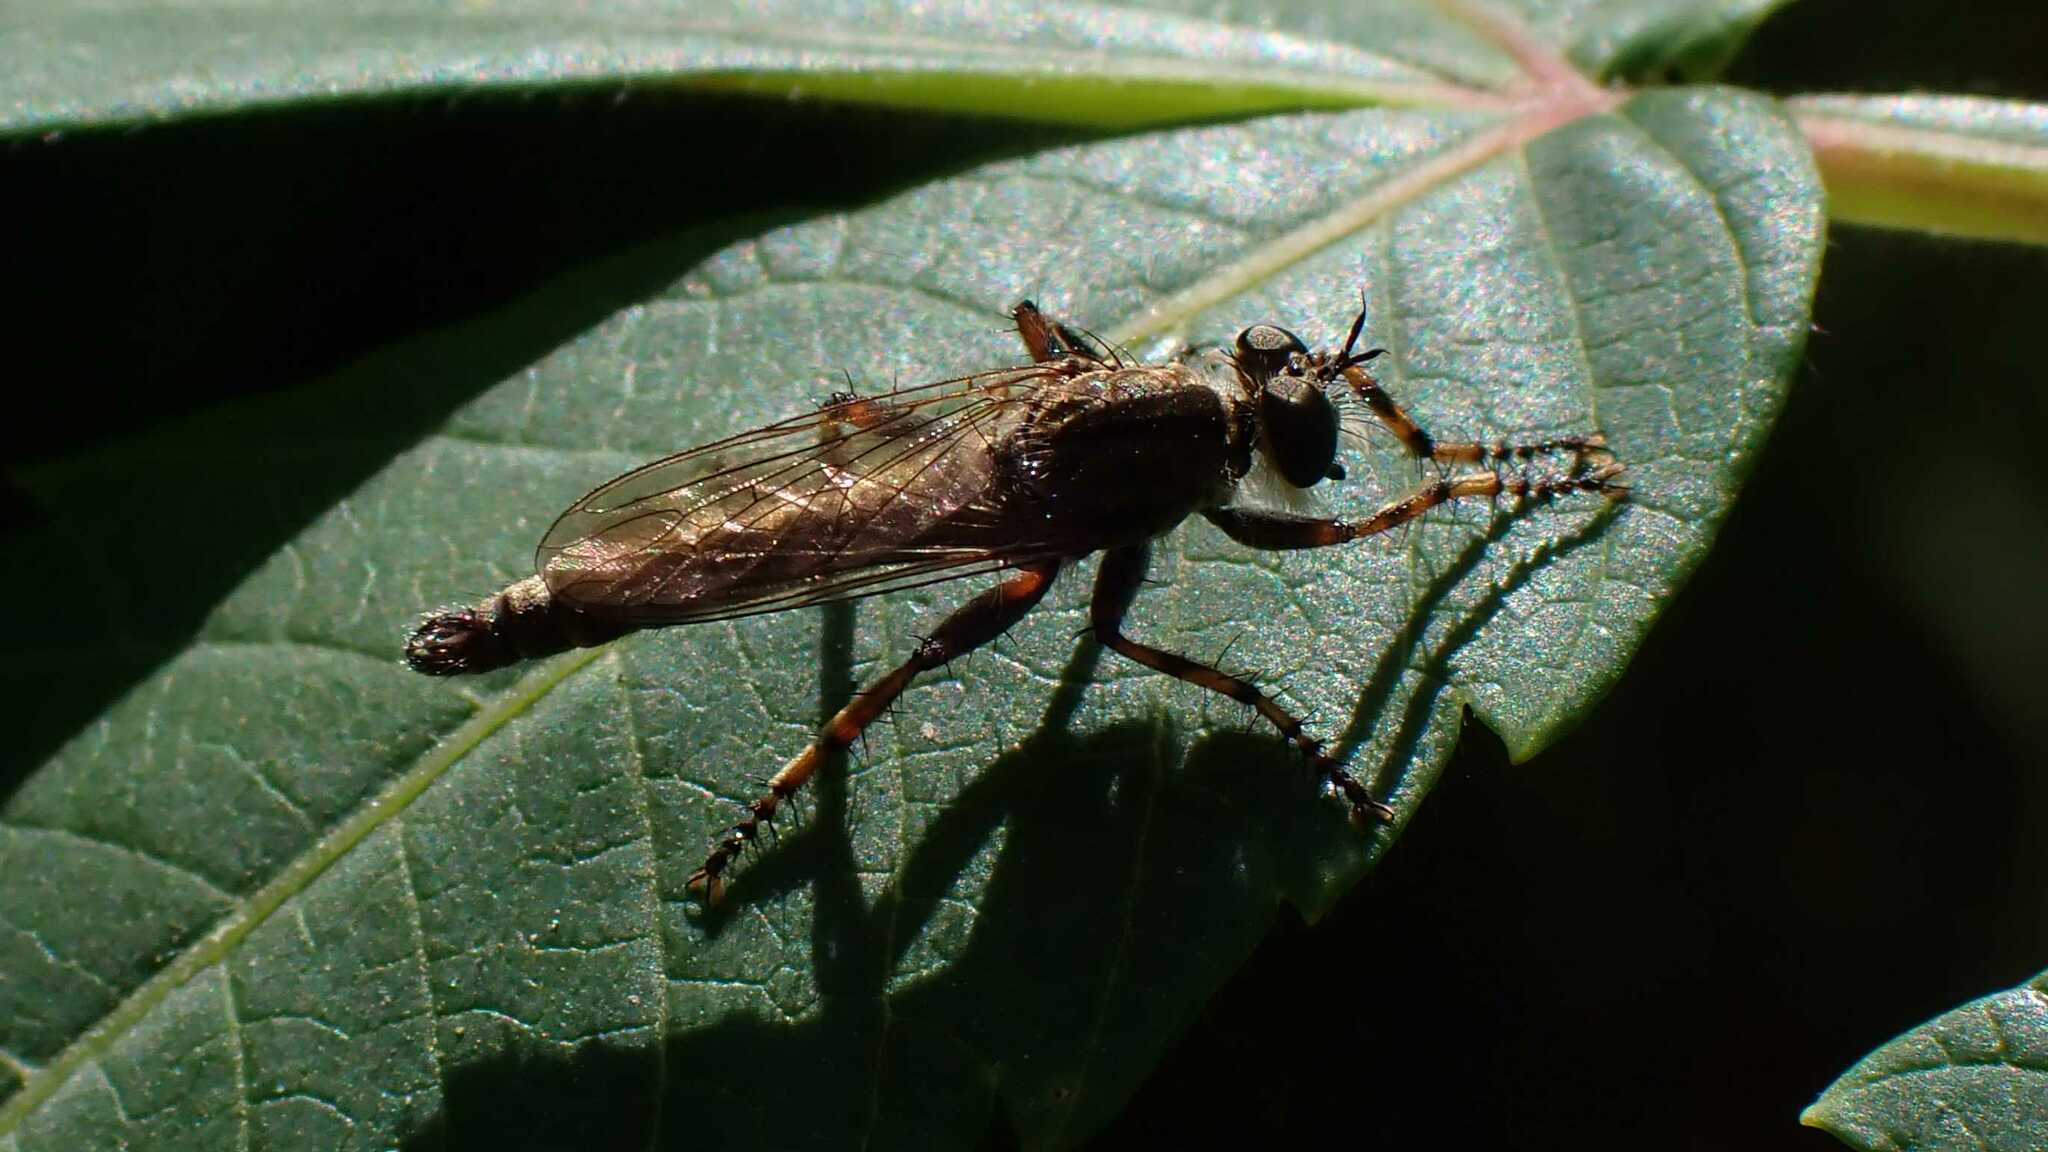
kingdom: Animalia
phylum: Arthropoda
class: Insecta
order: Diptera
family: Asilidae
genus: Tolmerus
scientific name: Tolmerus
